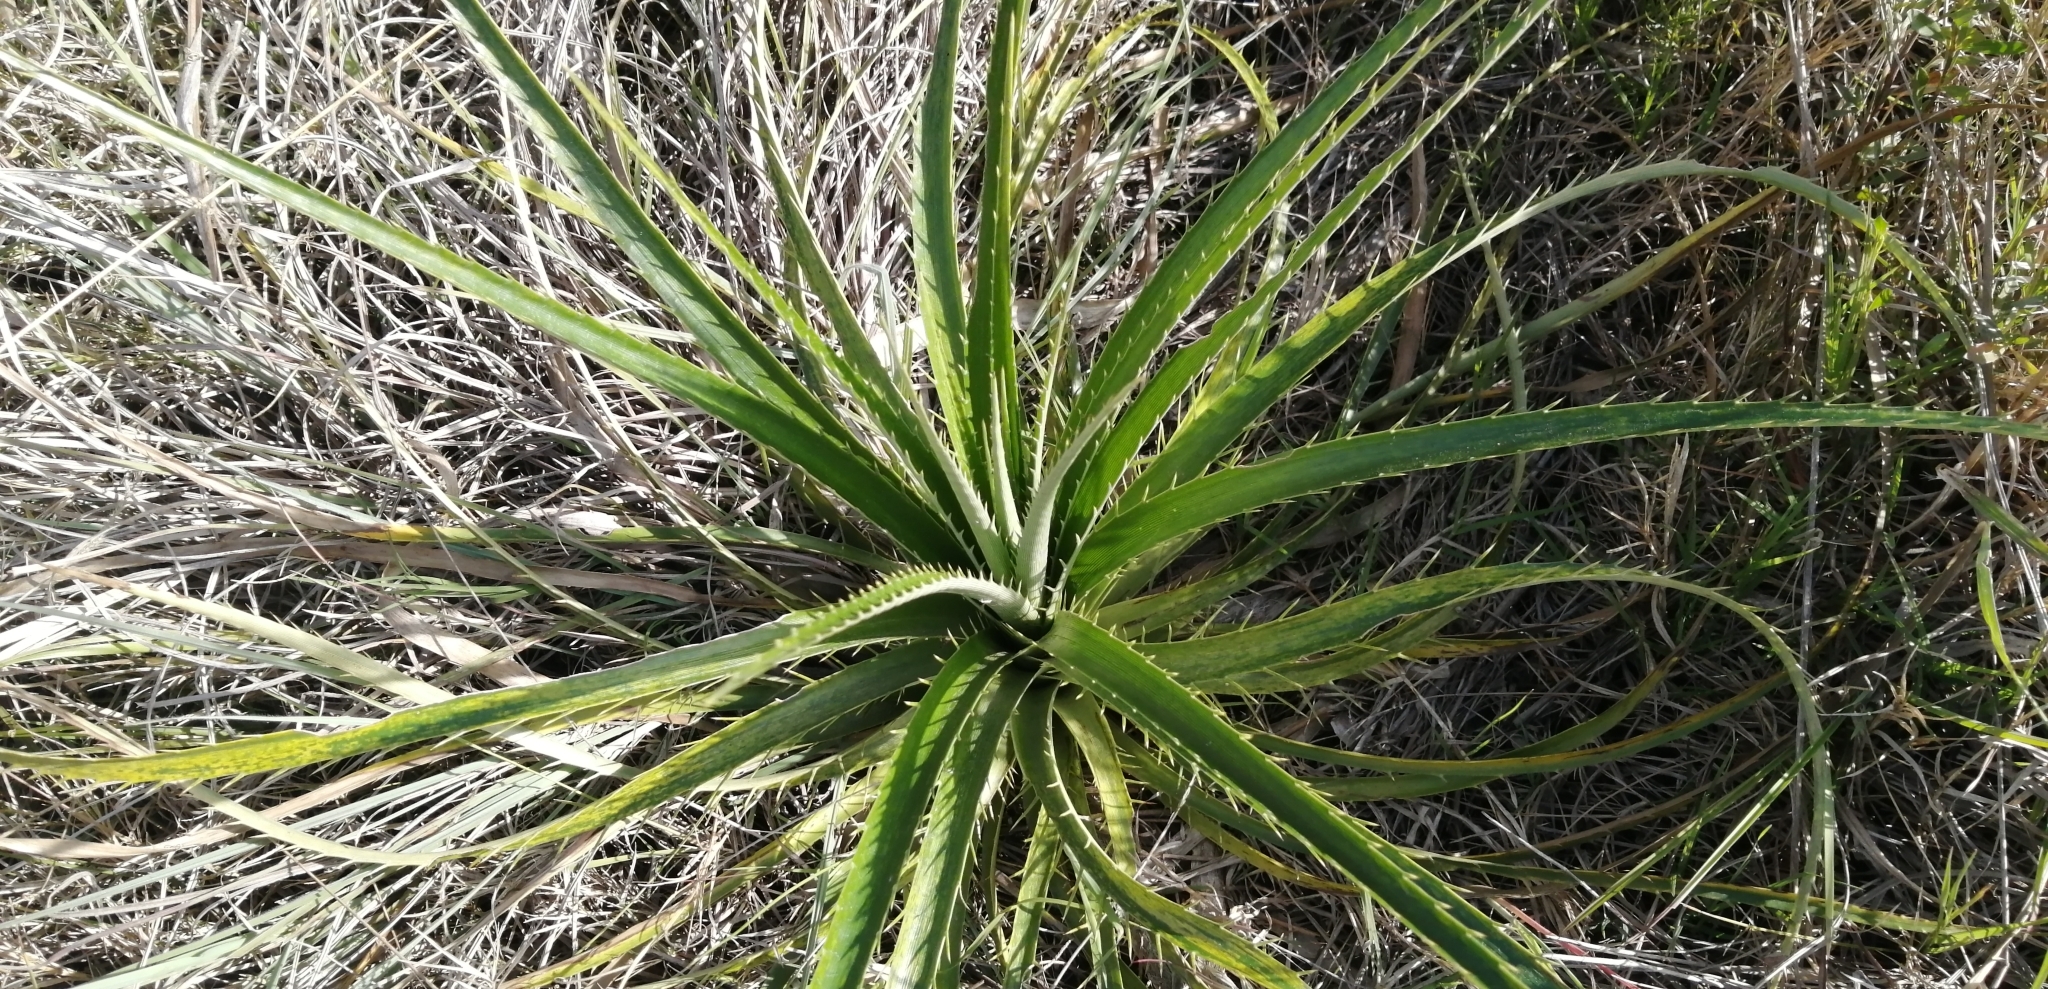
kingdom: Plantae
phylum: Tracheophyta
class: Magnoliopsida
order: Apiales
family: Apiaceae
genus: Eryngium
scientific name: Eryngium horridum
